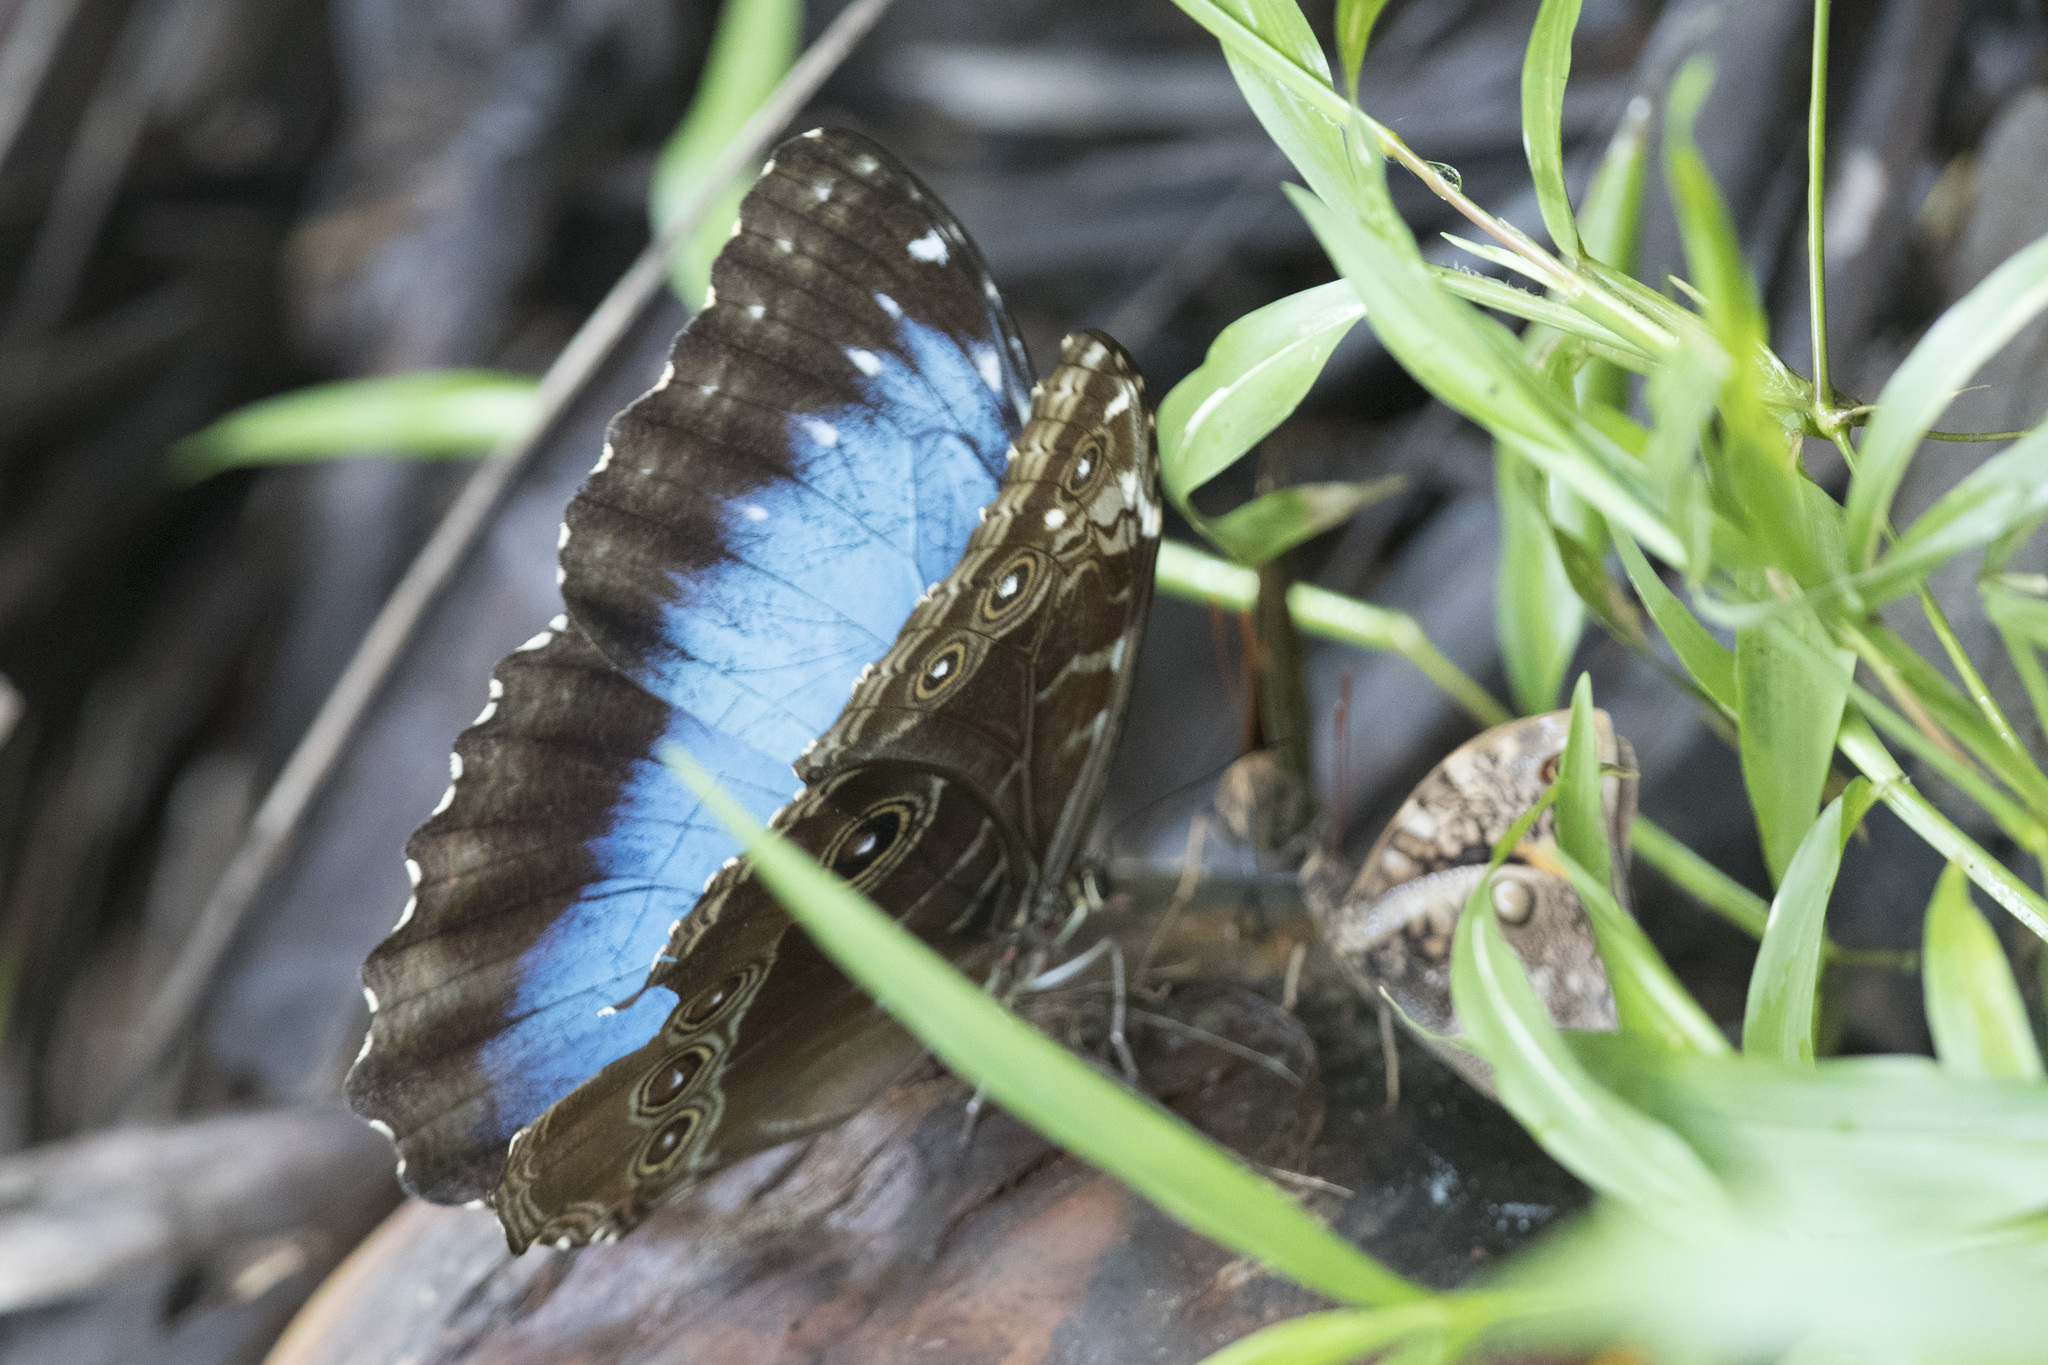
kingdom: Animalia
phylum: Arthropoda
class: Insecta
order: Lepidoptera
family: Nymphalidae
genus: Morpho
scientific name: Morpho helenor
